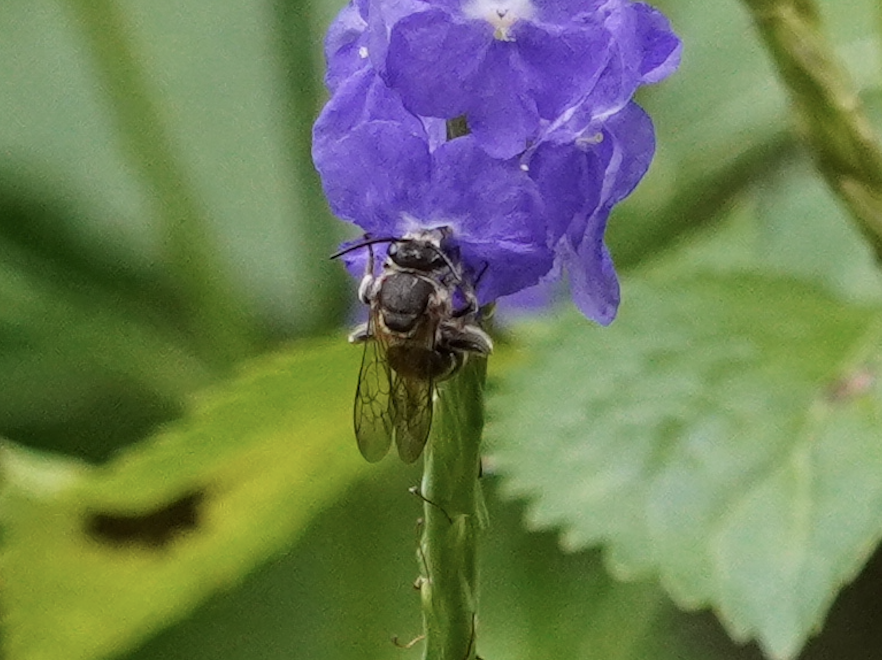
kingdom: Animalia
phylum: Arthropoda
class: Insecta
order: Hymenoptera
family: Halictidae
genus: Nomia
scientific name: Nomia strigata
